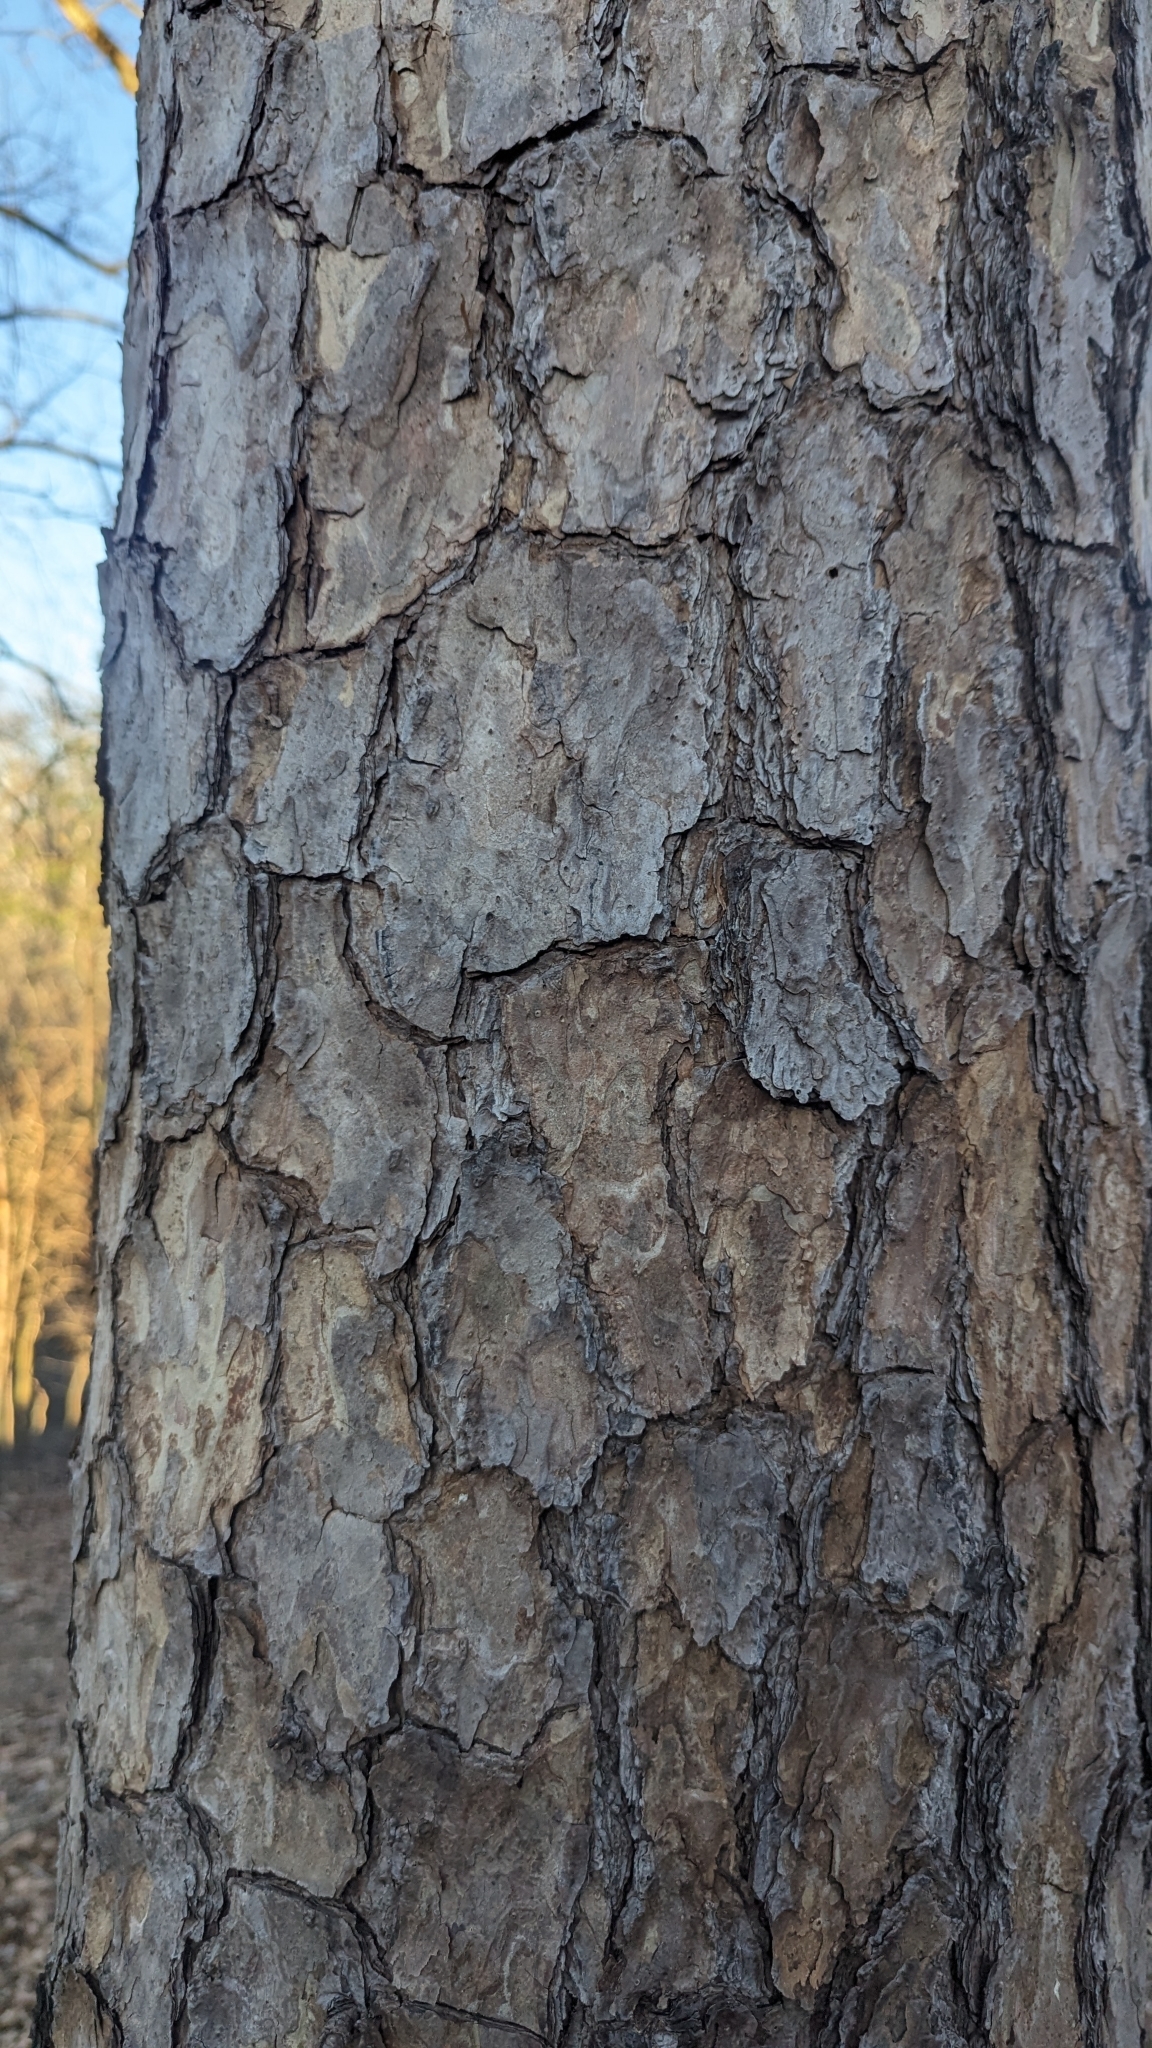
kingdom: Plantae
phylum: Tracheophyta
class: Pinopsida
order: Pinales
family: Pinaceae
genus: Pinus
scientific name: Pinus echinata
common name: Shortleaf pine
